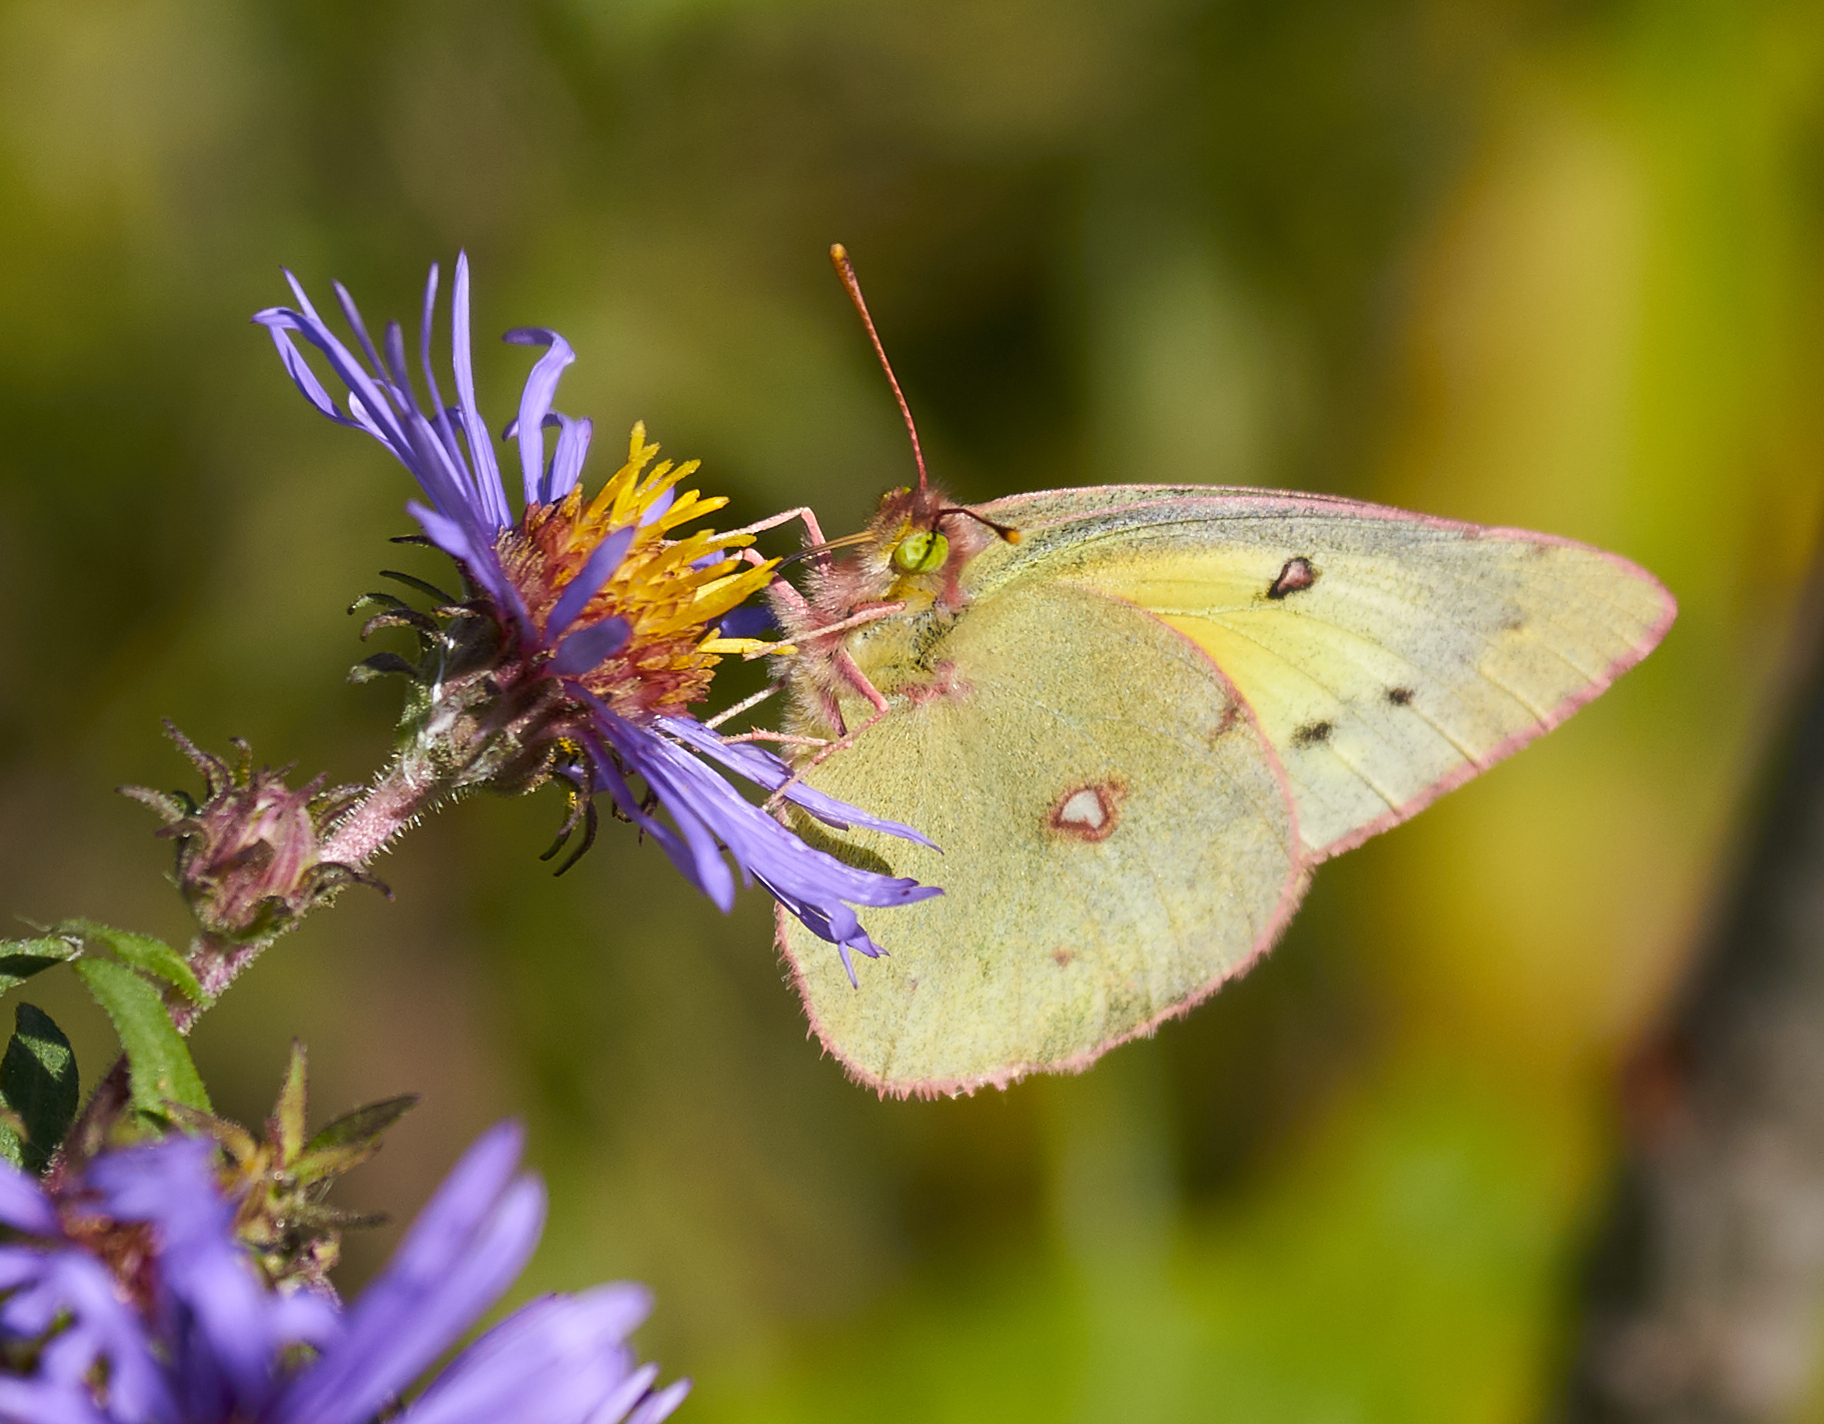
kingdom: Animalia
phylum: Arthropoda
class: Insecta
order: Lepidoptera
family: Pieridae
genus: Colias
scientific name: Colias eurytheme
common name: Alfalfa butterfly
